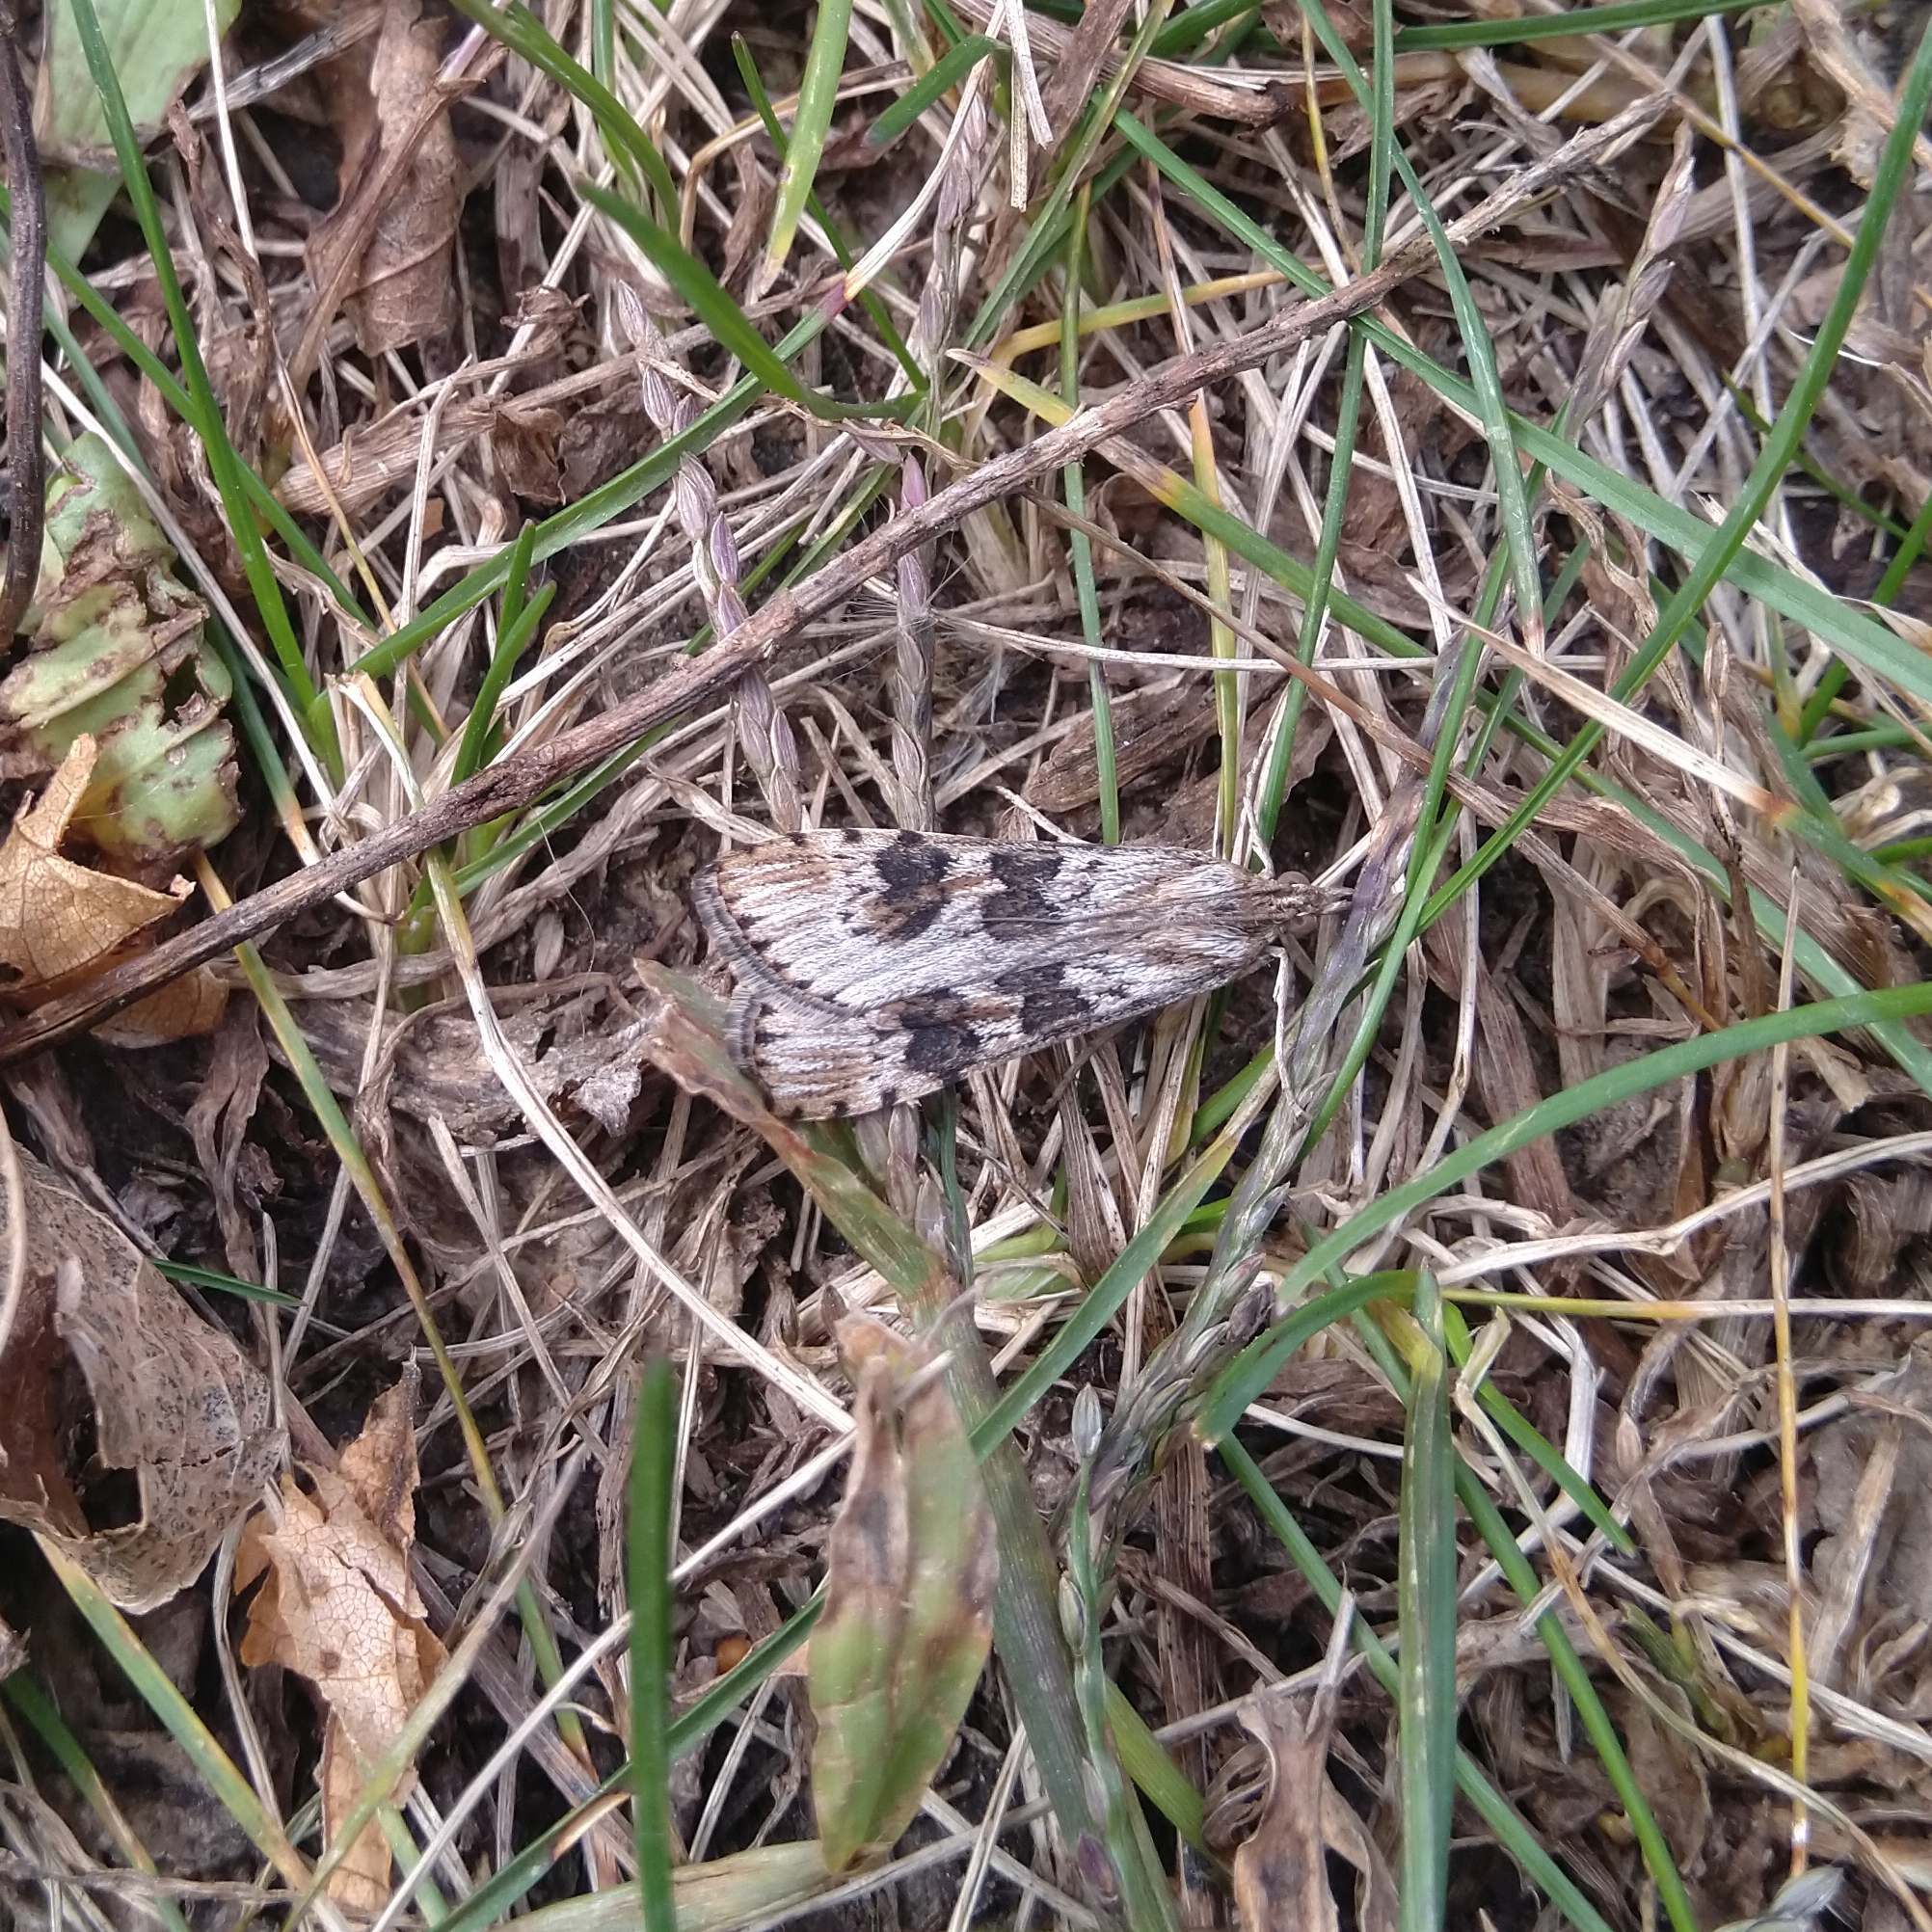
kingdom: Animalia
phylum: Arthropoda
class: Insecta
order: Lepidoptera
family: Crambidae
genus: Nomophila
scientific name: Nomophila nearctica
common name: American rush veneer
